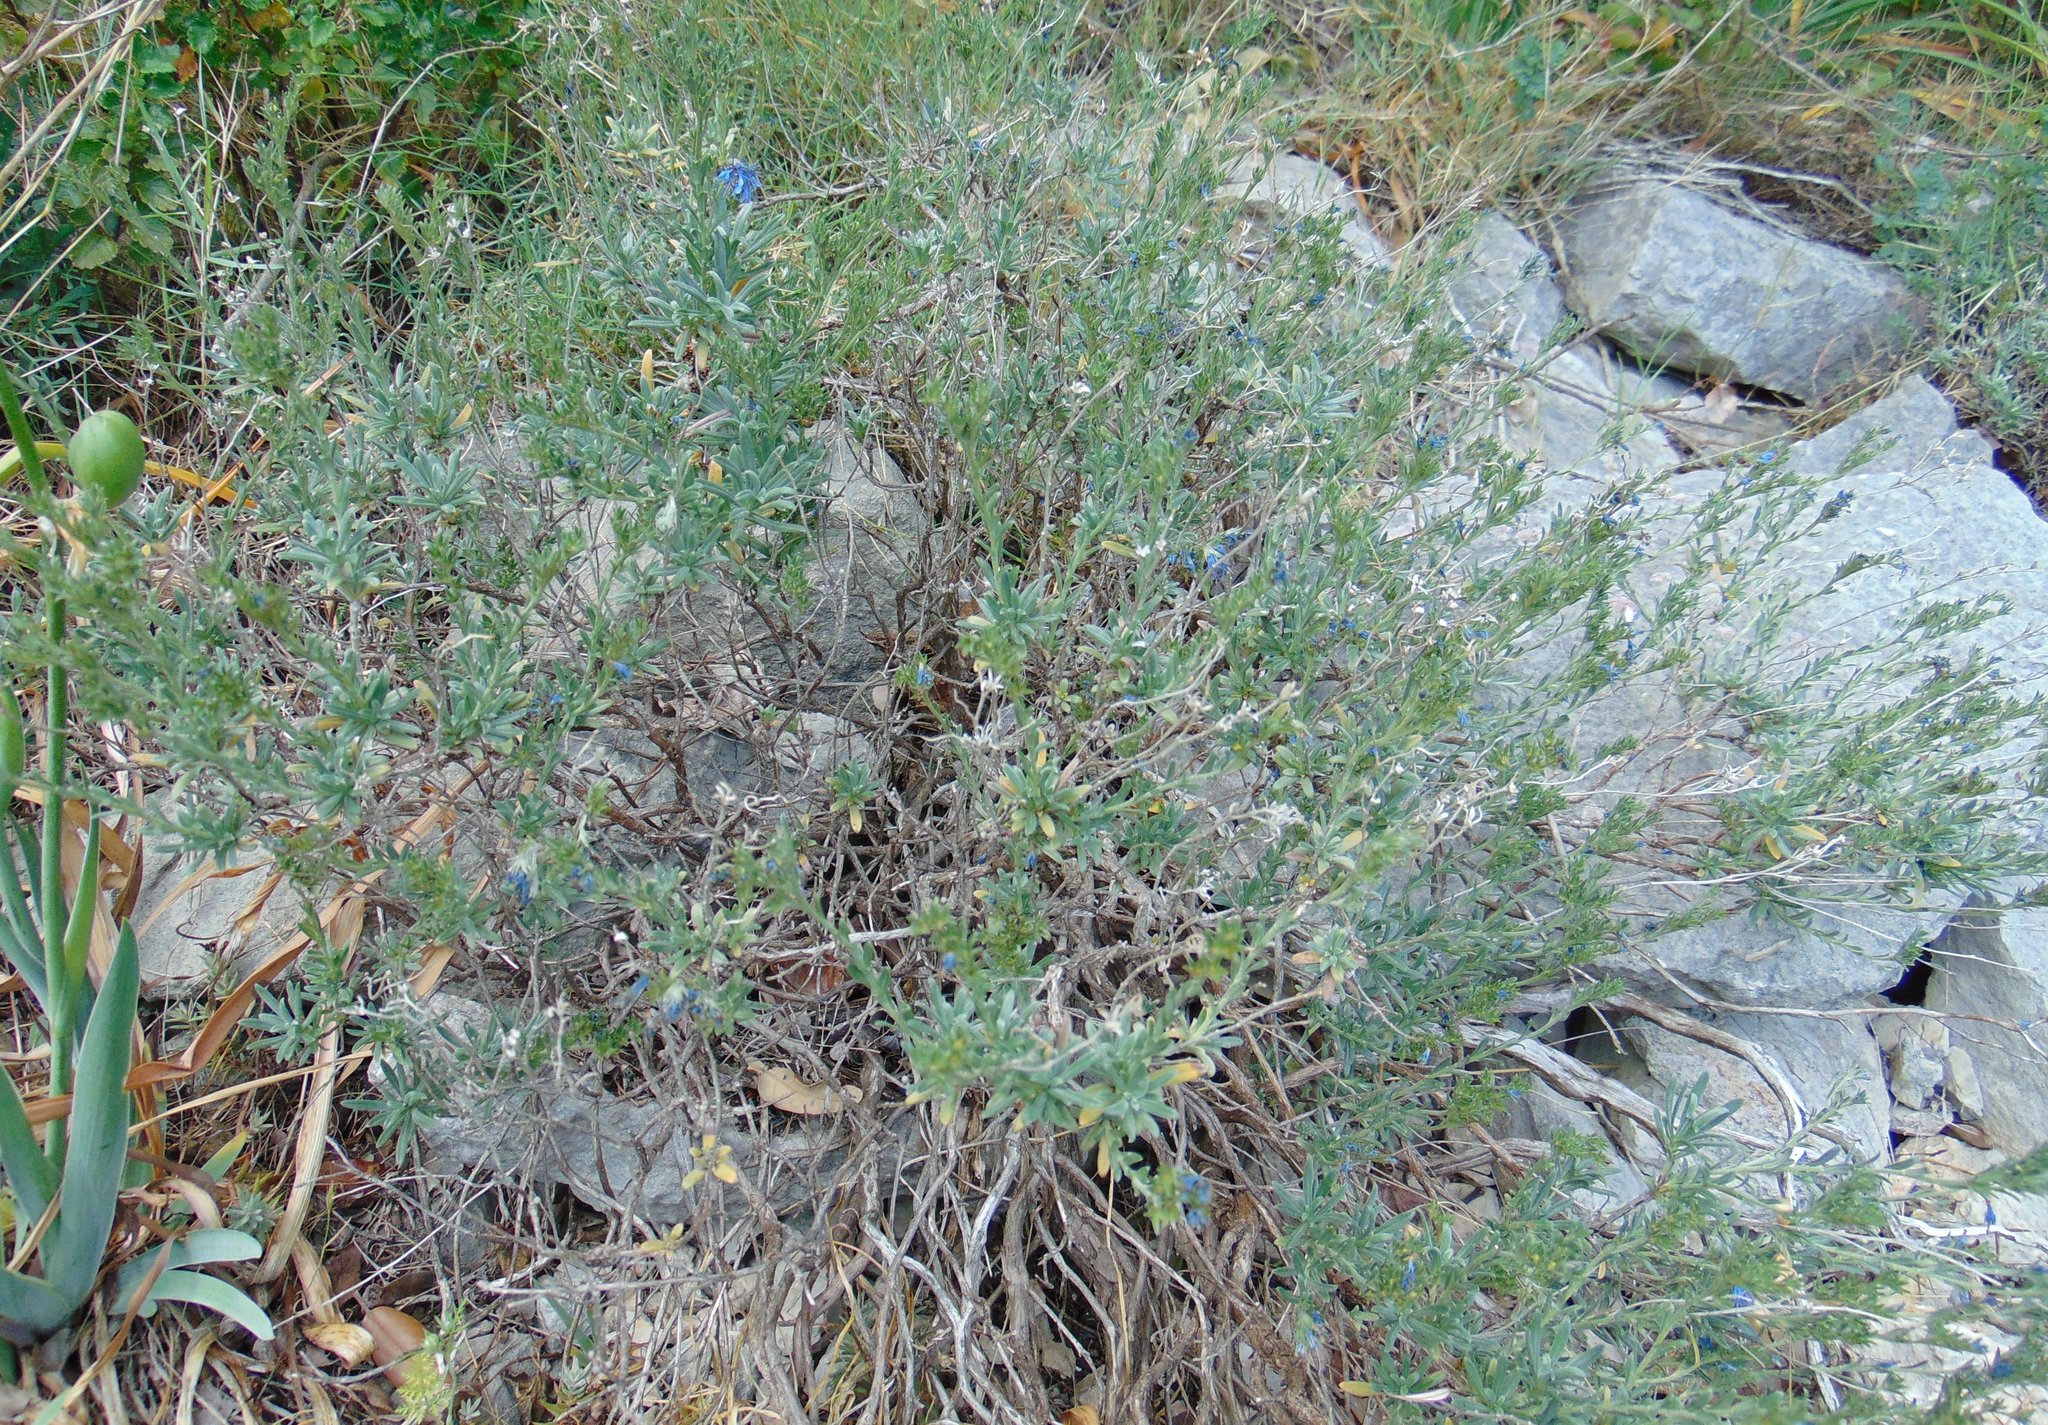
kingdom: Plantae
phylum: Tracheophyta
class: Magnoliopsida
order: Boraginales
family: Boraginaceae
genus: Moltkia
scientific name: Moltkia petraea
